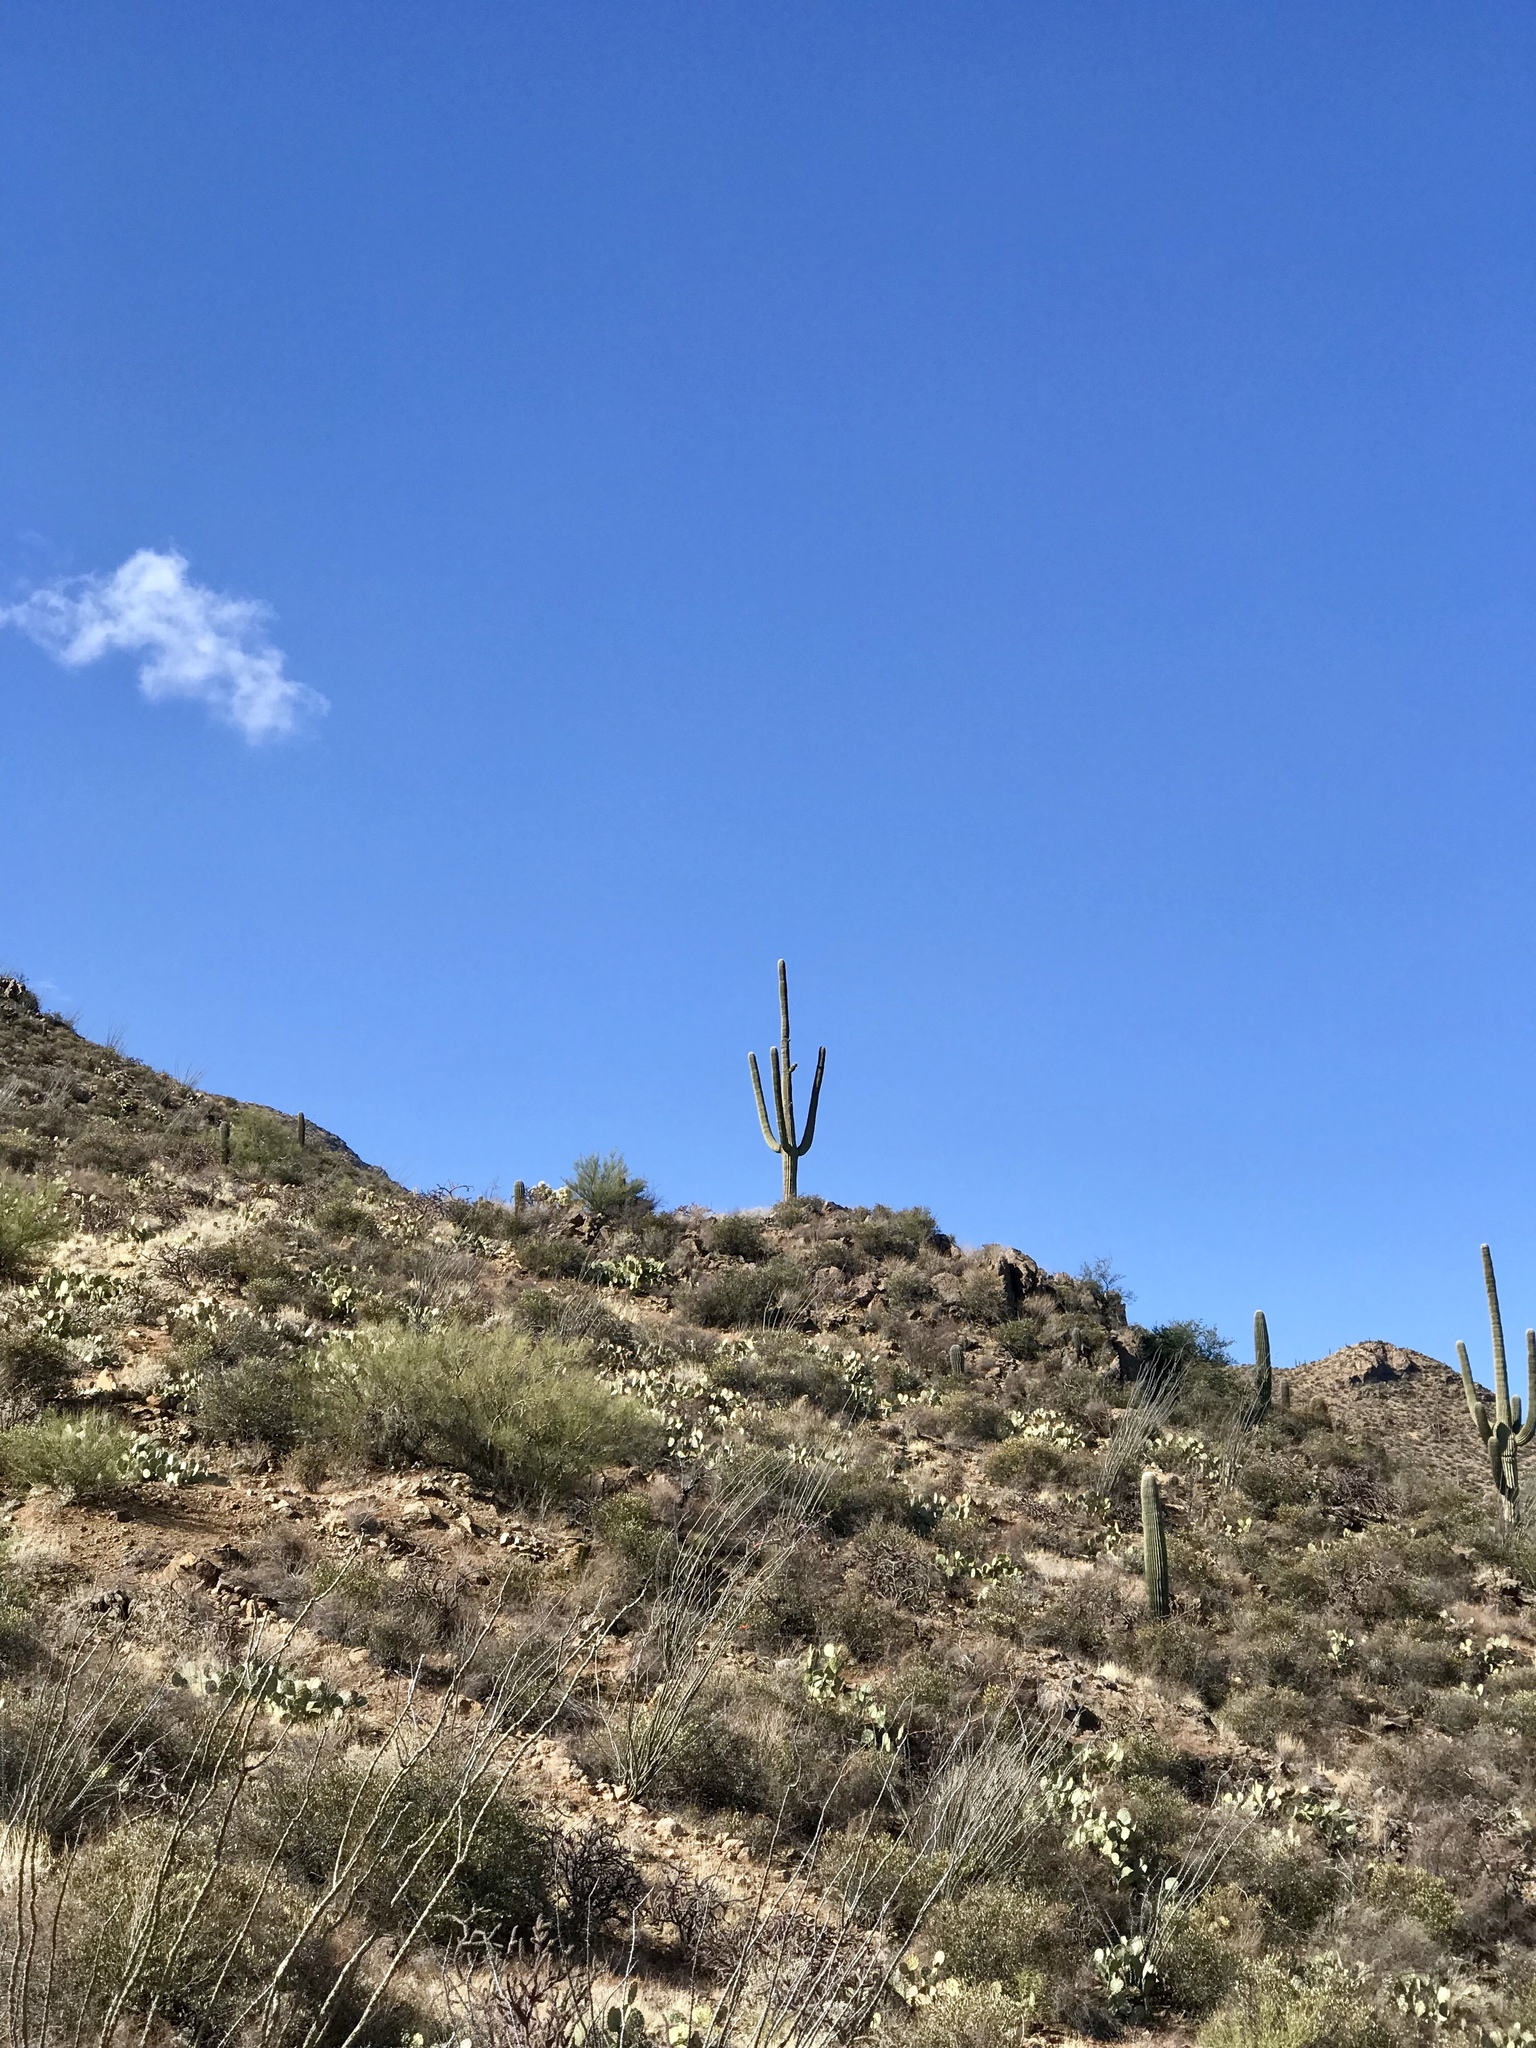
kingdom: Plantae
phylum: Tracheophyta
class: Magnoliopsida
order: Caryophyllales
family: Cactaceae
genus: Carnegiea
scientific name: Carnegiea gigantea
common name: Saguaro
